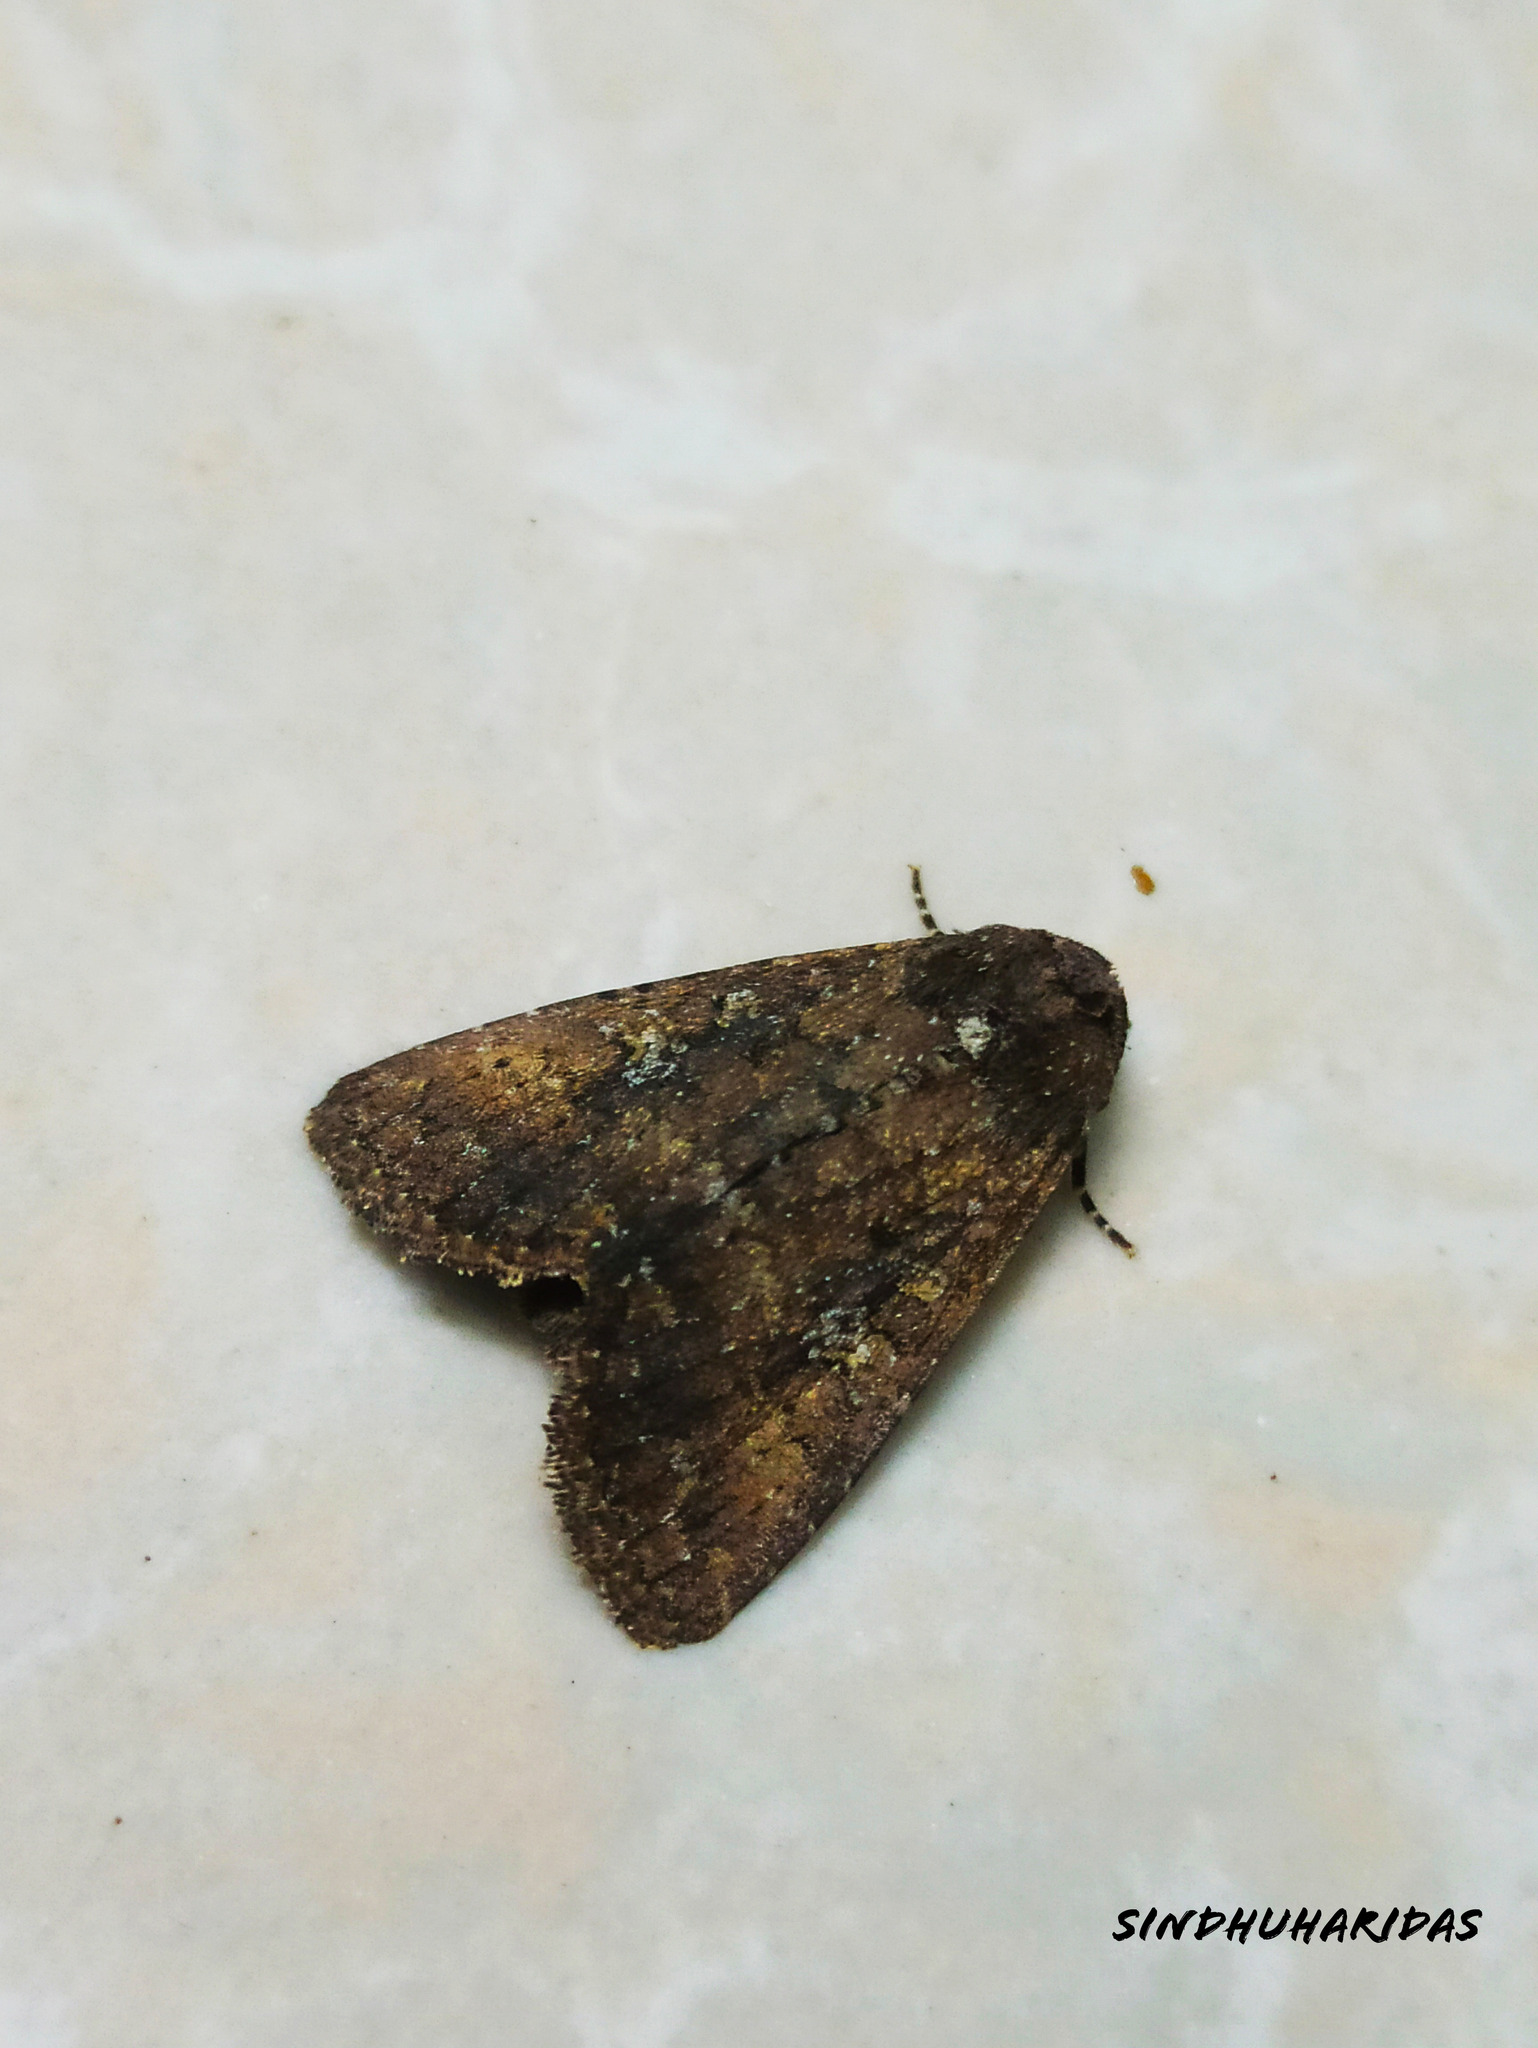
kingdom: Animalia
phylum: Arthropoda
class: Insecta
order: Lepidoptera
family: Noctuidae
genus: Condica
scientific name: Condica illecta
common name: Cutworm
